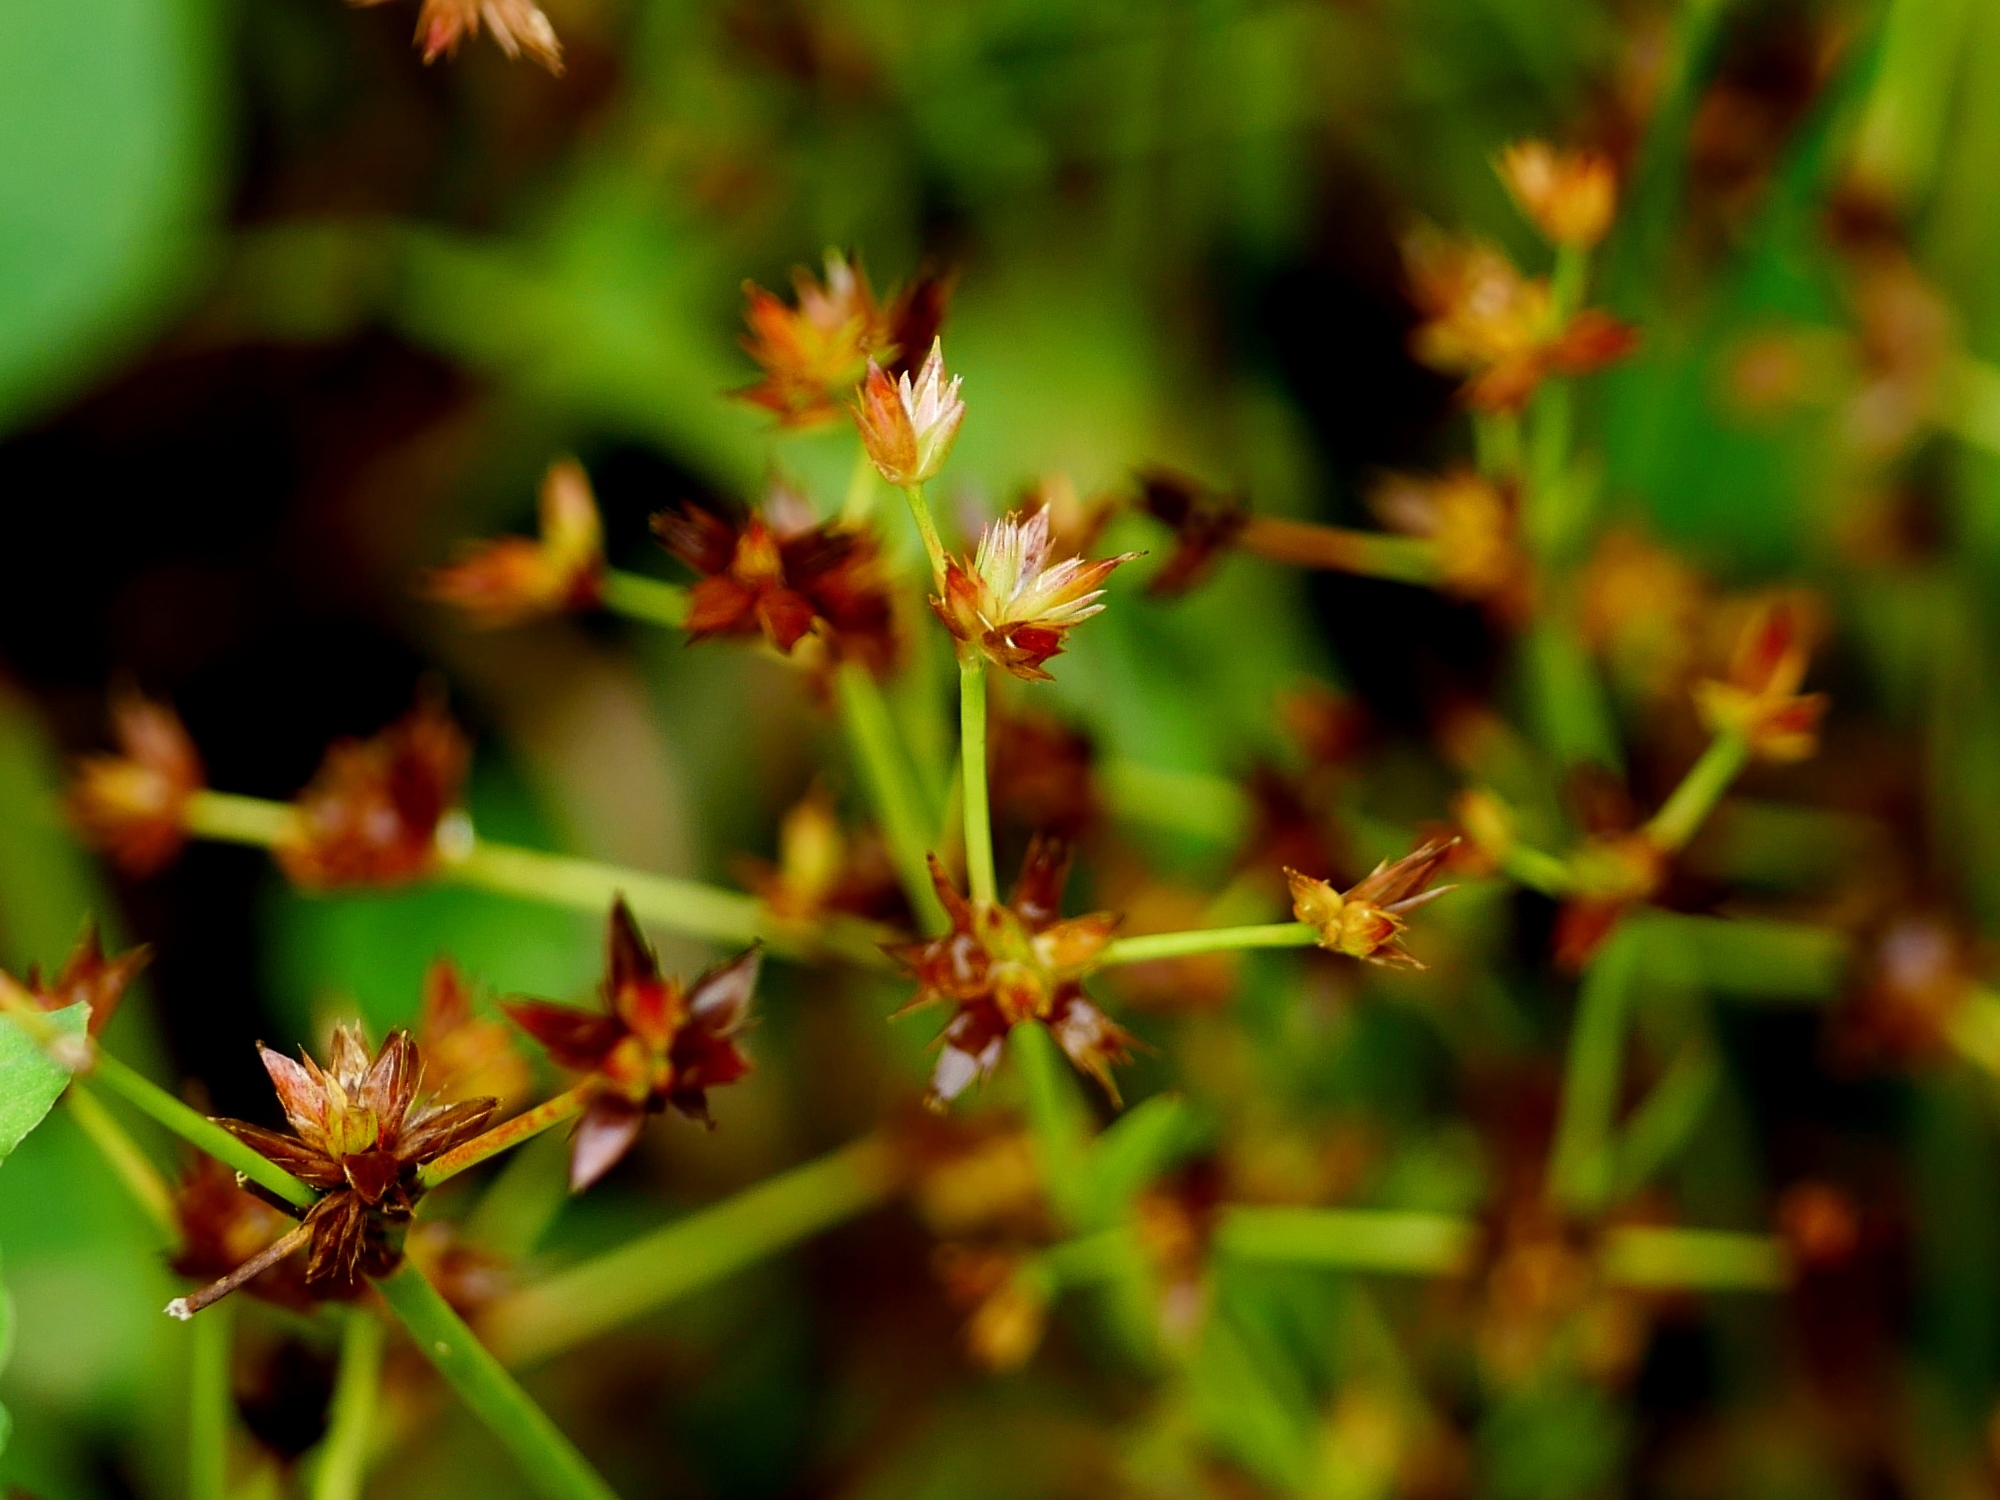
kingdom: Plantae
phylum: Tracheophyta
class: Liliopsida
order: Poales
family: Juncaceae
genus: Juncus
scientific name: Juncus prismatocarpus
